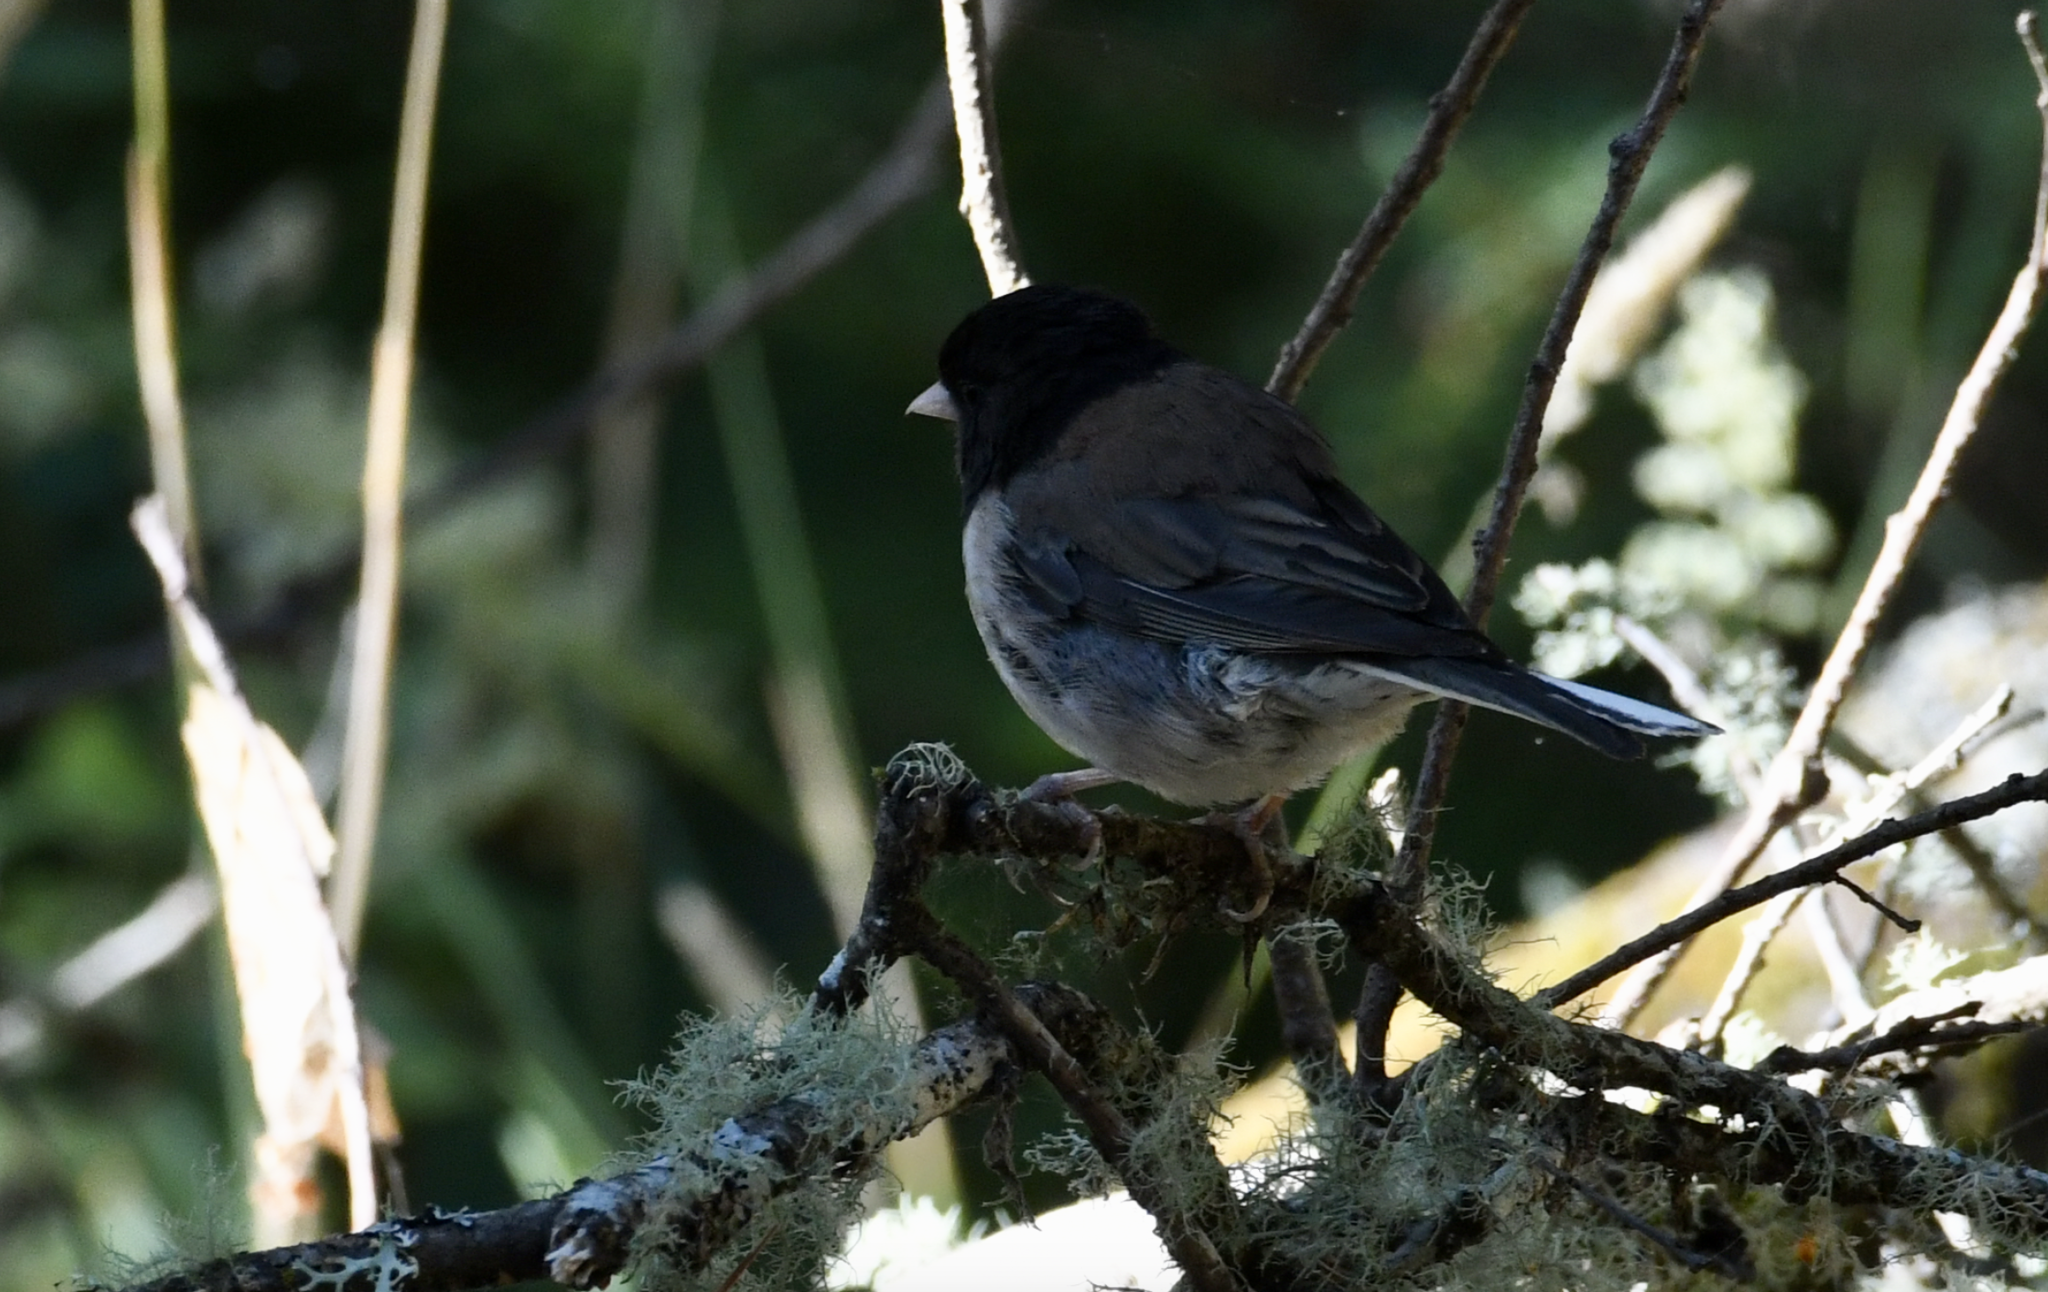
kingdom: Animalia
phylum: Chordata
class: Aves
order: Piciformes
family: Picidae
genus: Leuconotopicus
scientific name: Leuconotopicus villosus
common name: Hairy woodpecker
